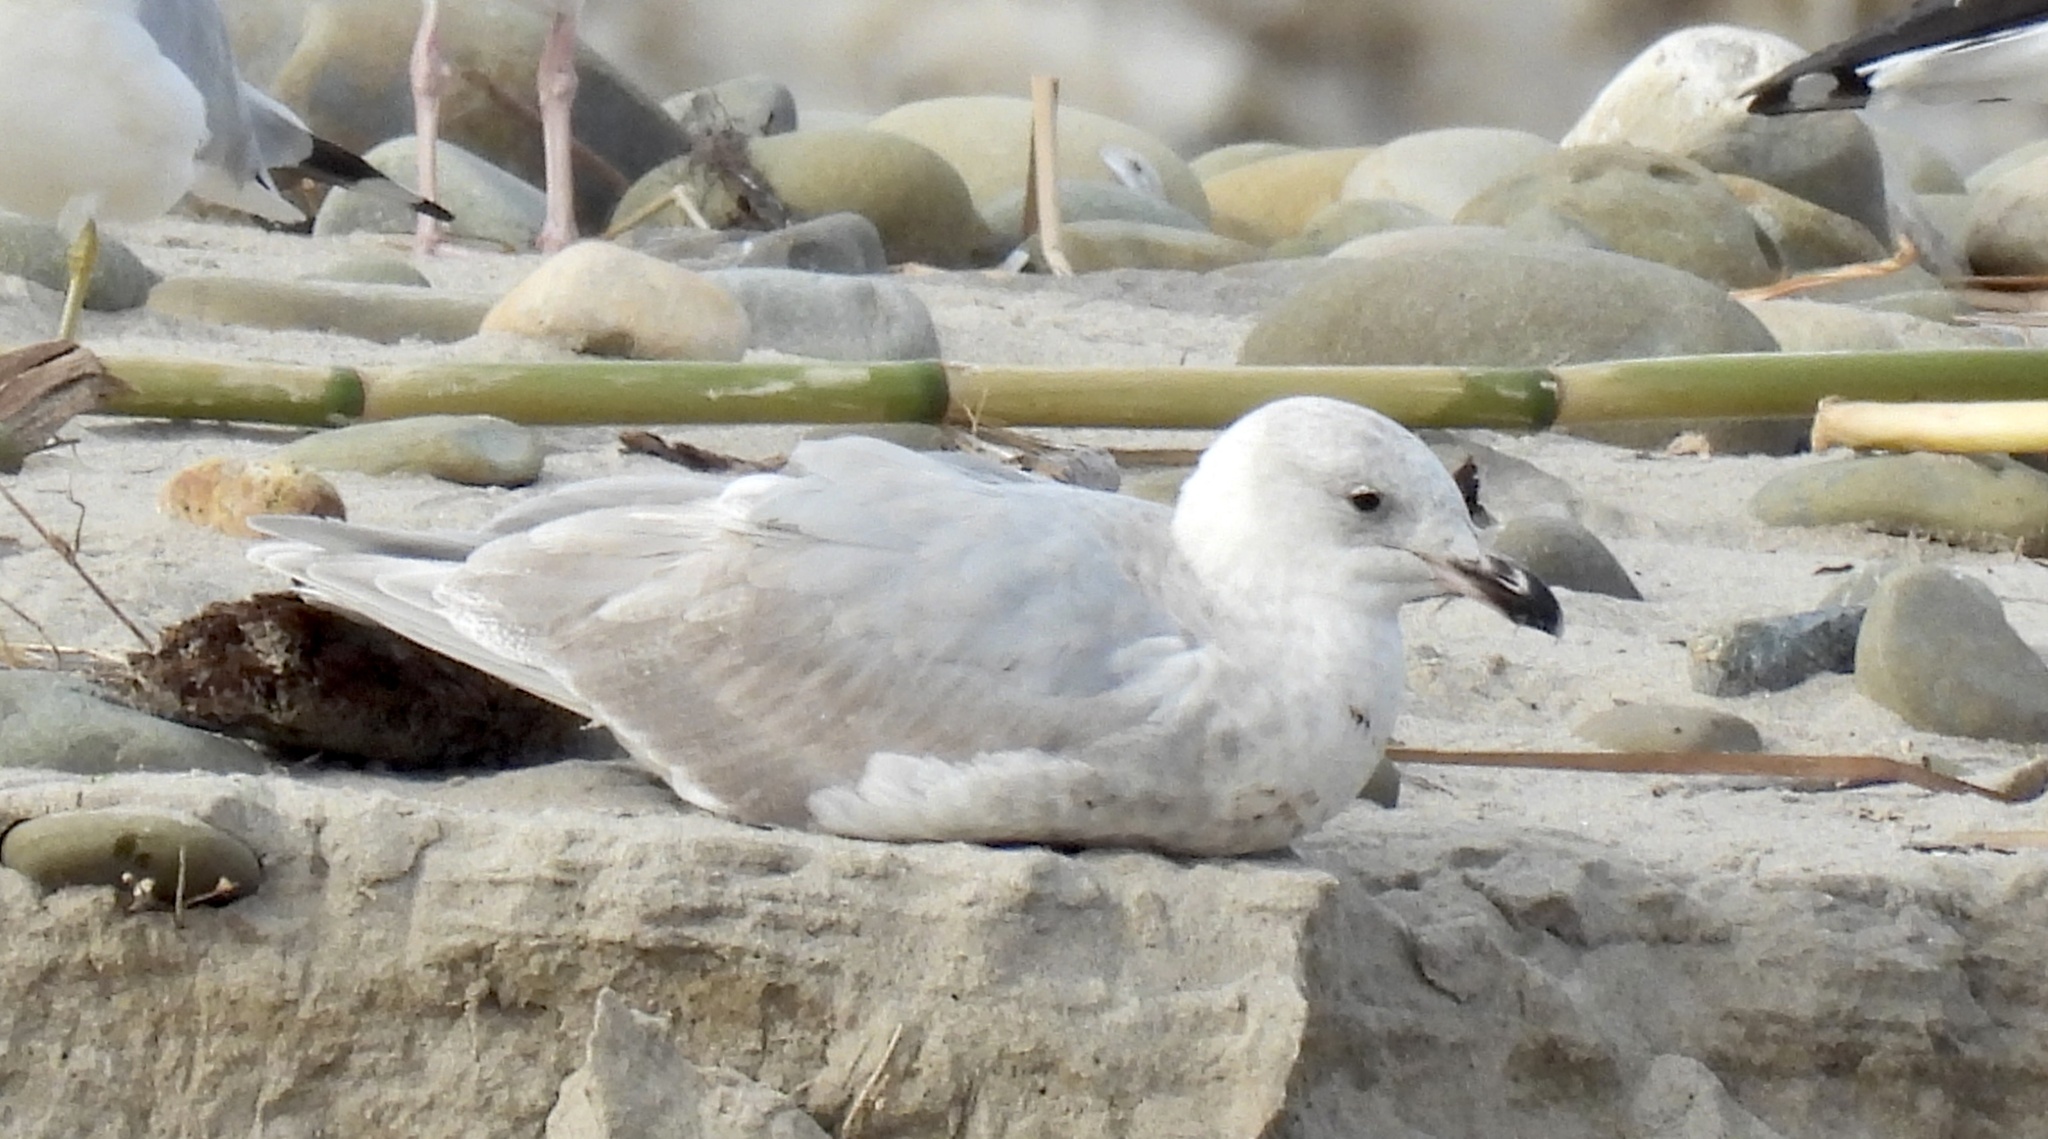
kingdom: Animalia
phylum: Chordata
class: Aves
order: Charadriiformes
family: Laridae
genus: Larus
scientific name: Larus glaucescens
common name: Glaucous-winged gull
